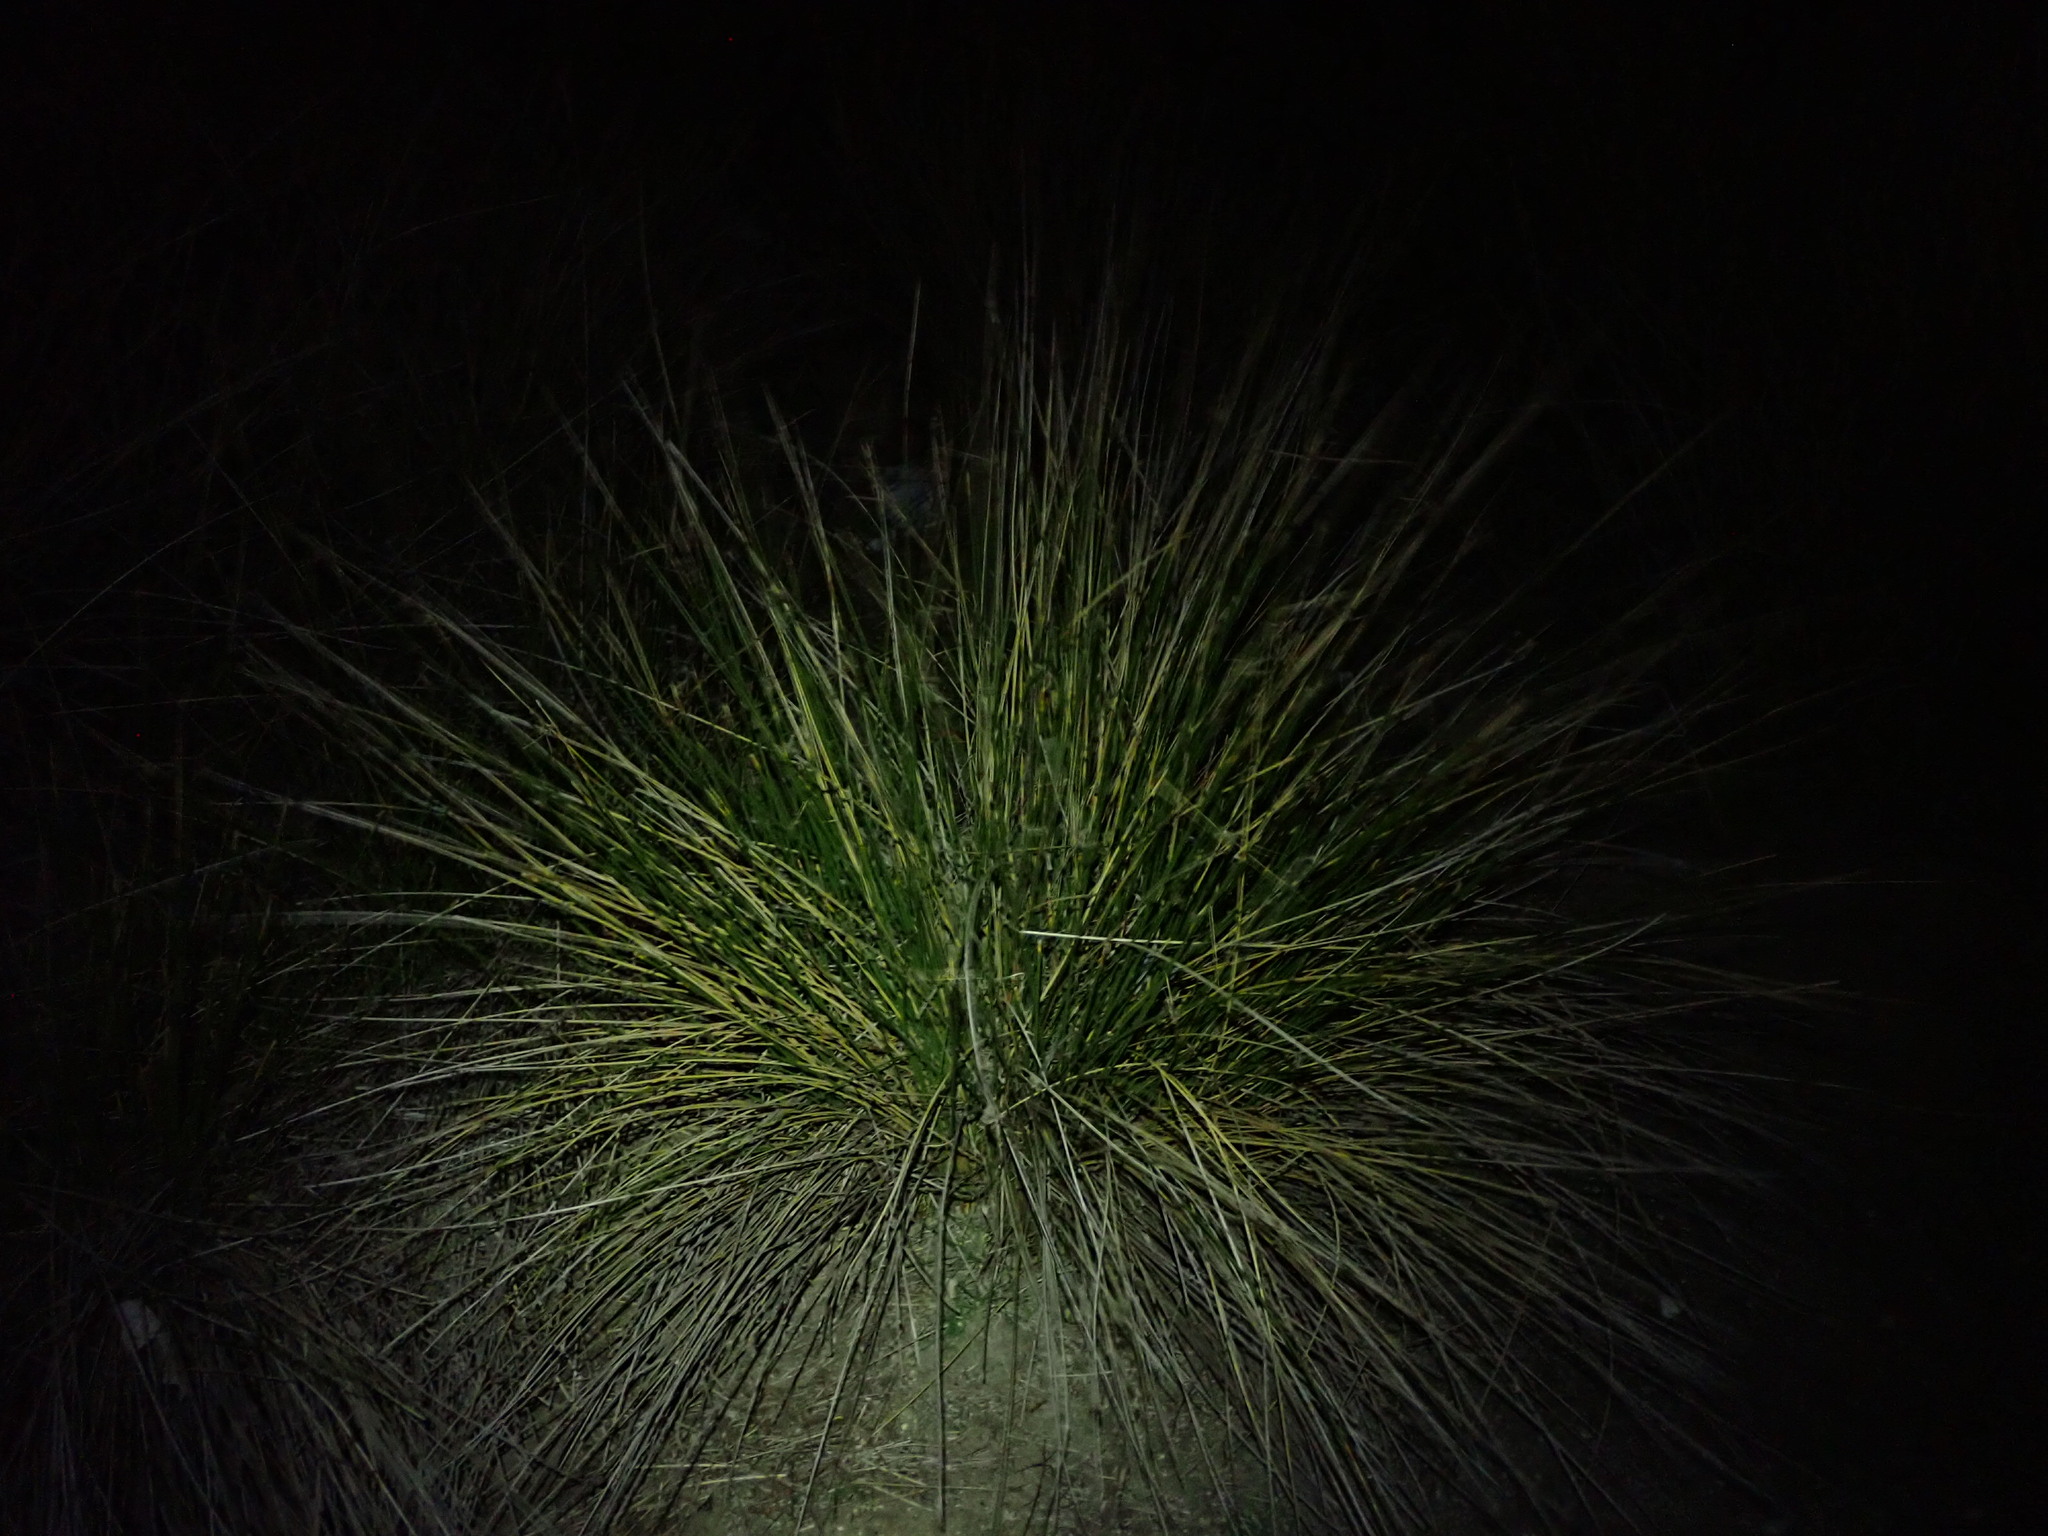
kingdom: Plantae
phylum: Tracheophyta
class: Liliopsida
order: Poales
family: Cyperaceae
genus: Scirpoides
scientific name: Scirpoides holoschoenus
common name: Round-headed club-rush
